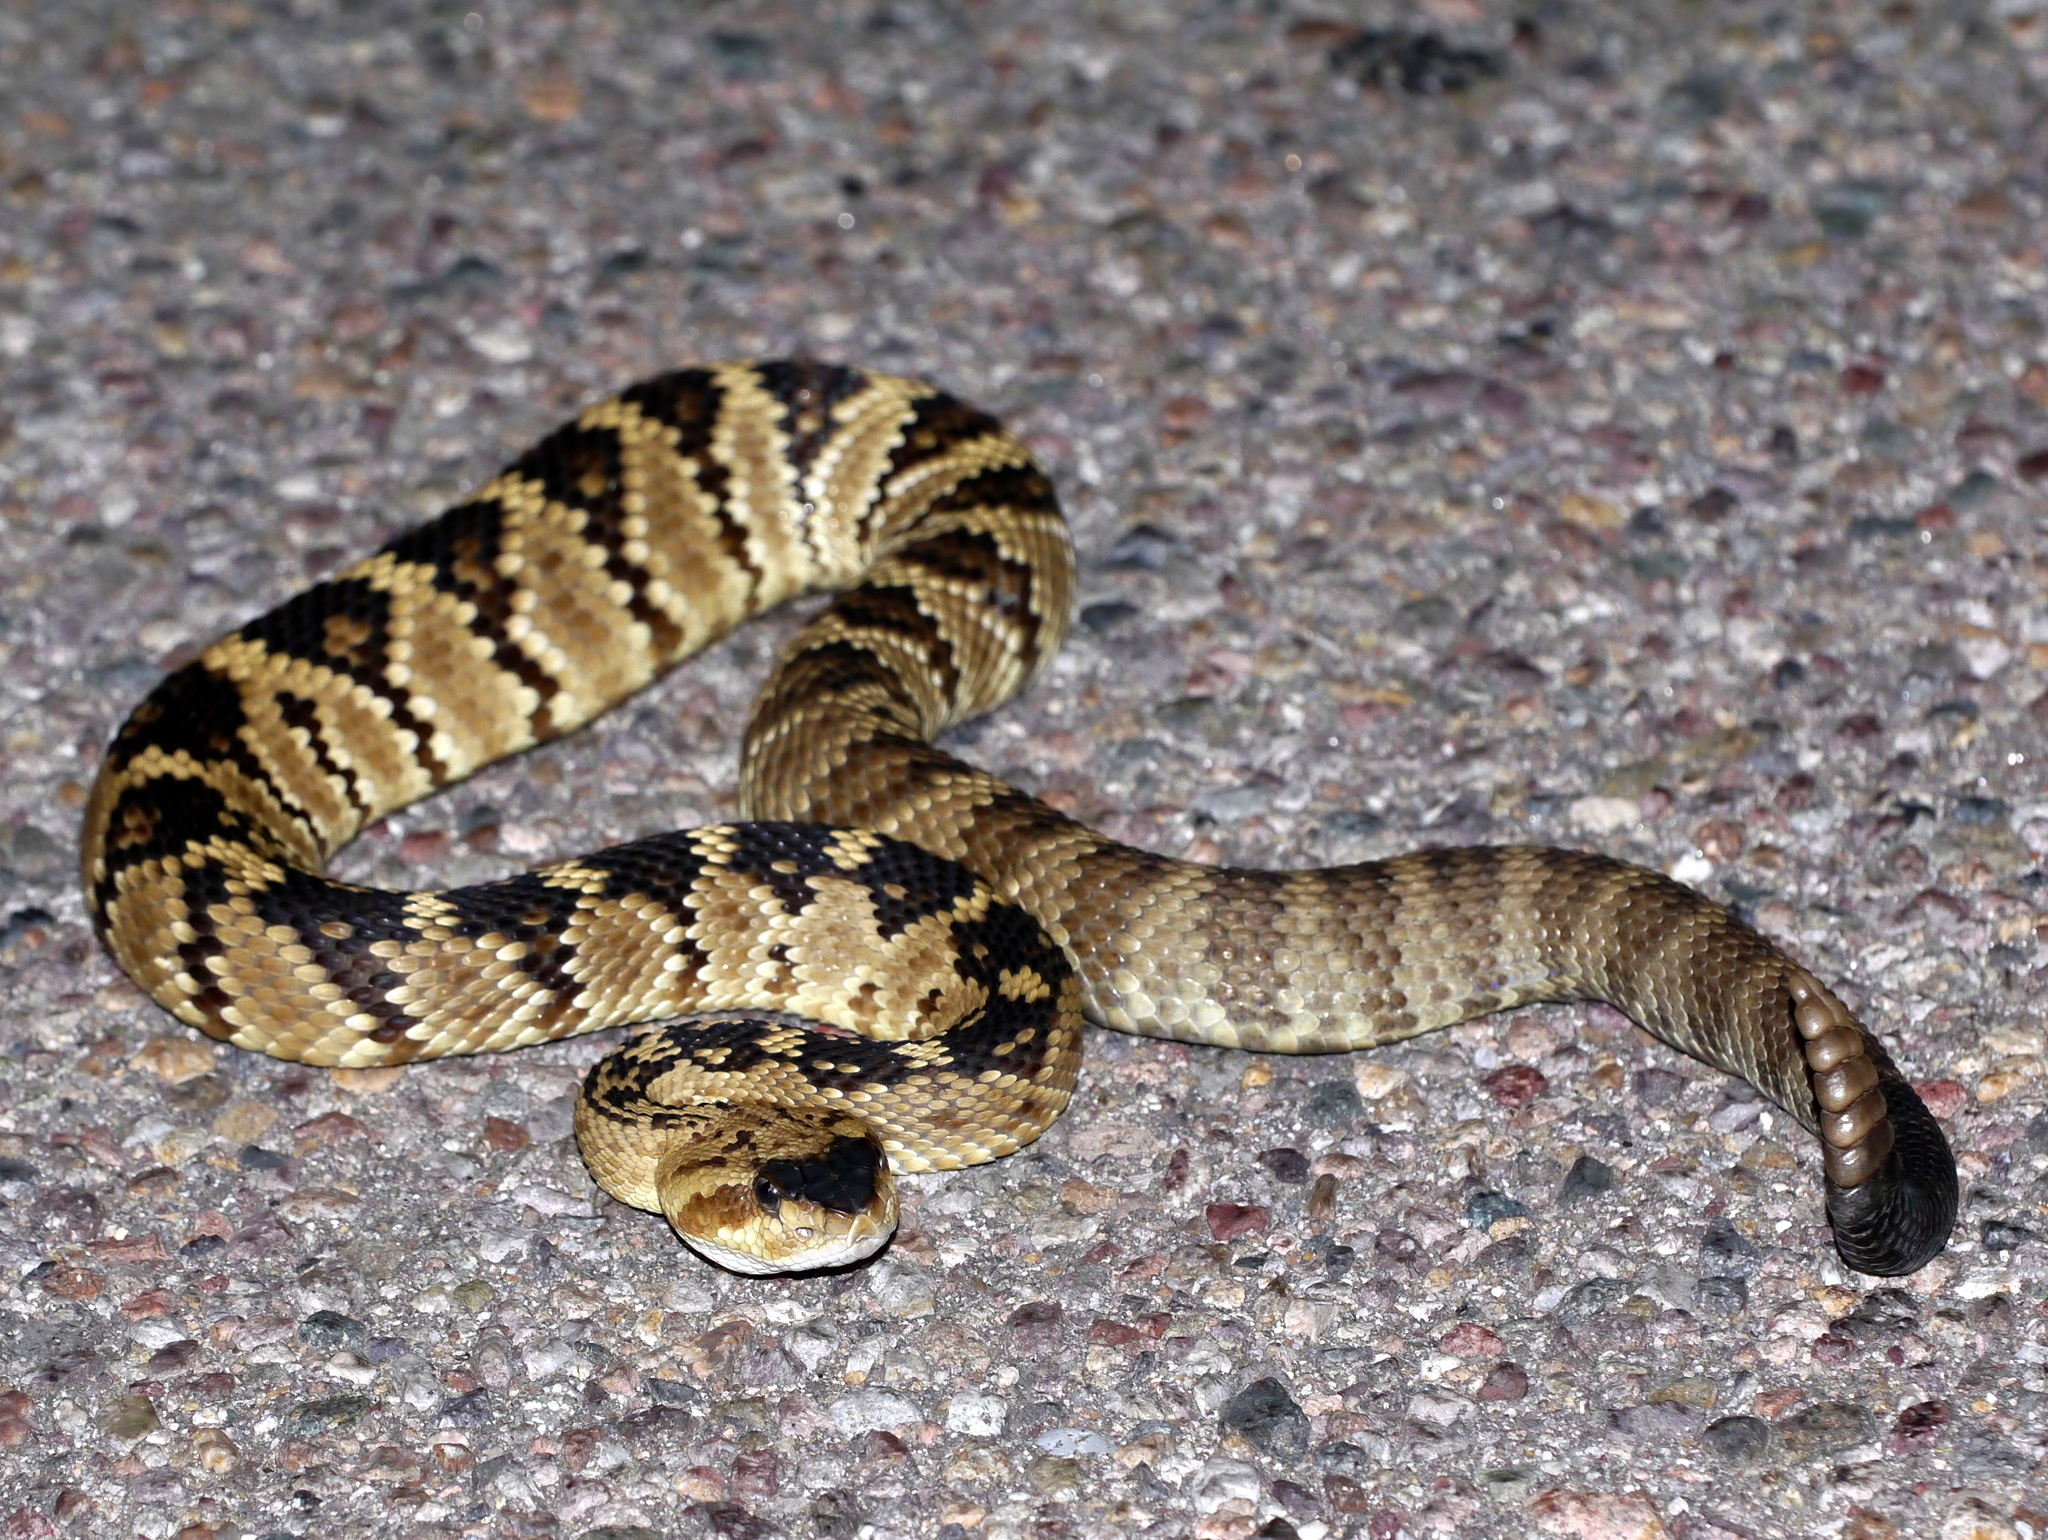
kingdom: Animalia
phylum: Chordata
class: Squamata
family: Viperidae
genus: Crotalus
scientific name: Crotalus molossus
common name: Black tailed rattlesnake
